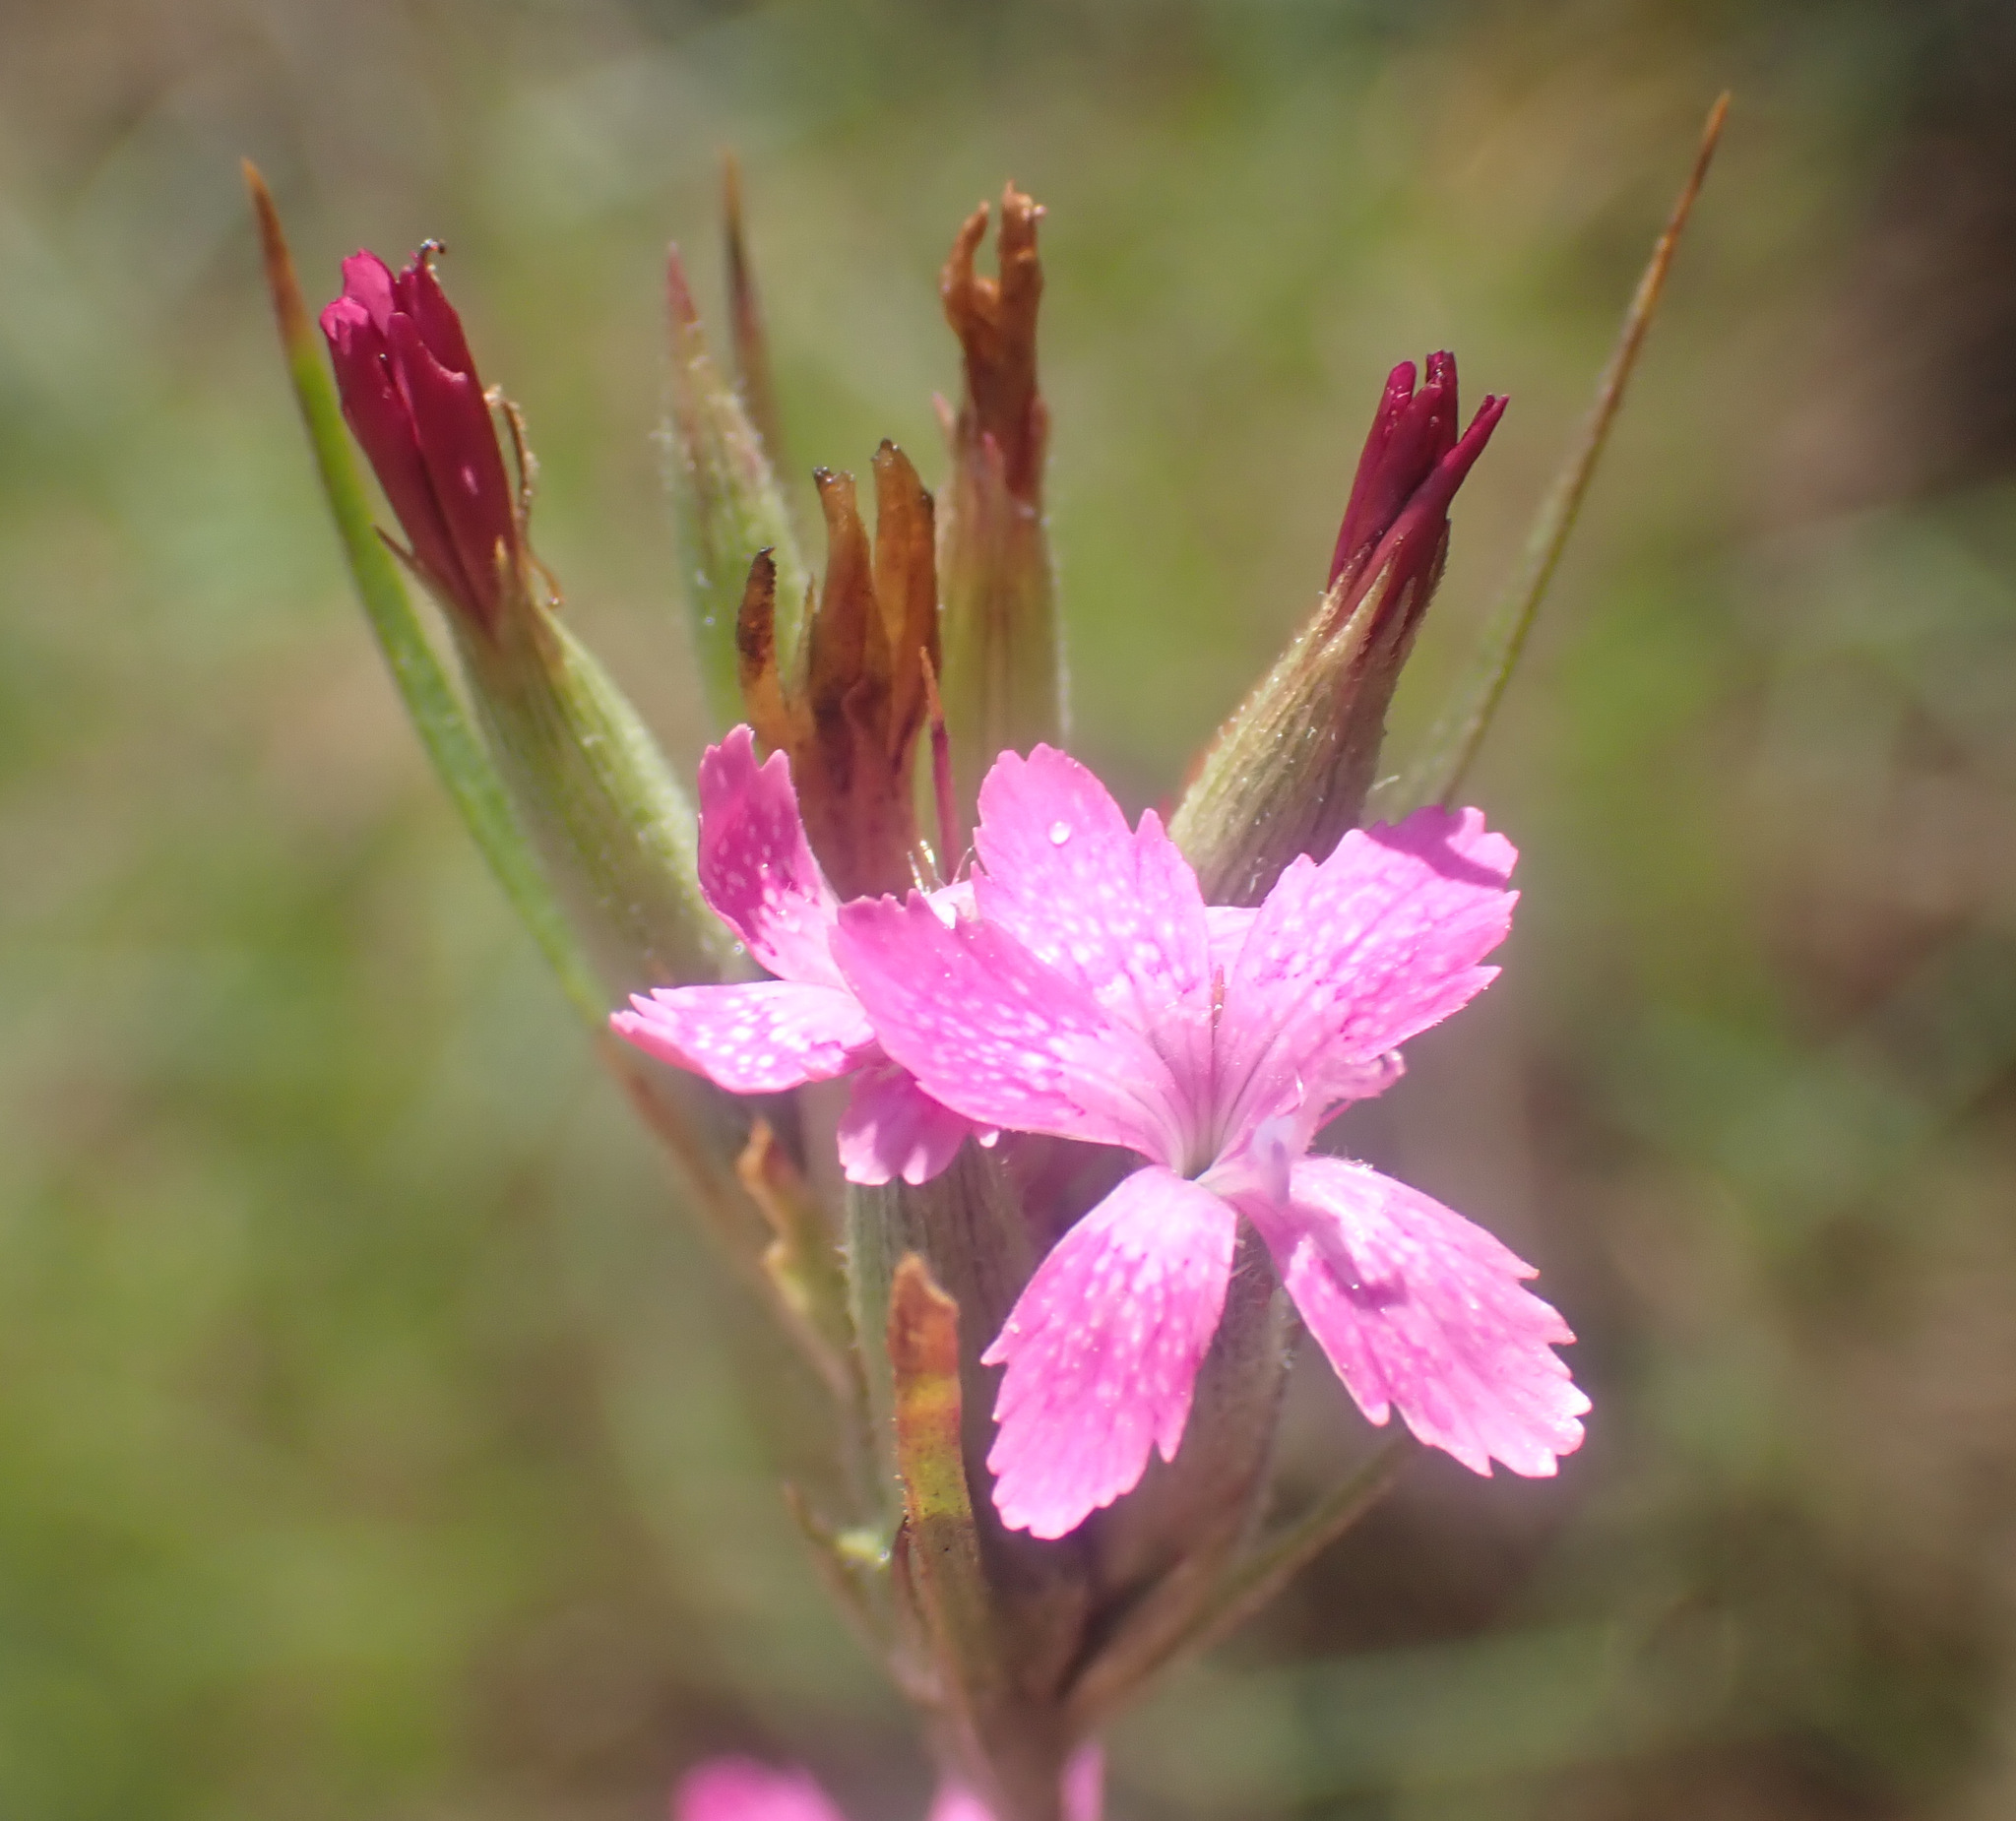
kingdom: Plantae
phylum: Tracheophyta
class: Magnoliopsida
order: Caryophyllales
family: Caryophyllaceae
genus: Dianthus
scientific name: Dianthus armeria
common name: Deptford pink
